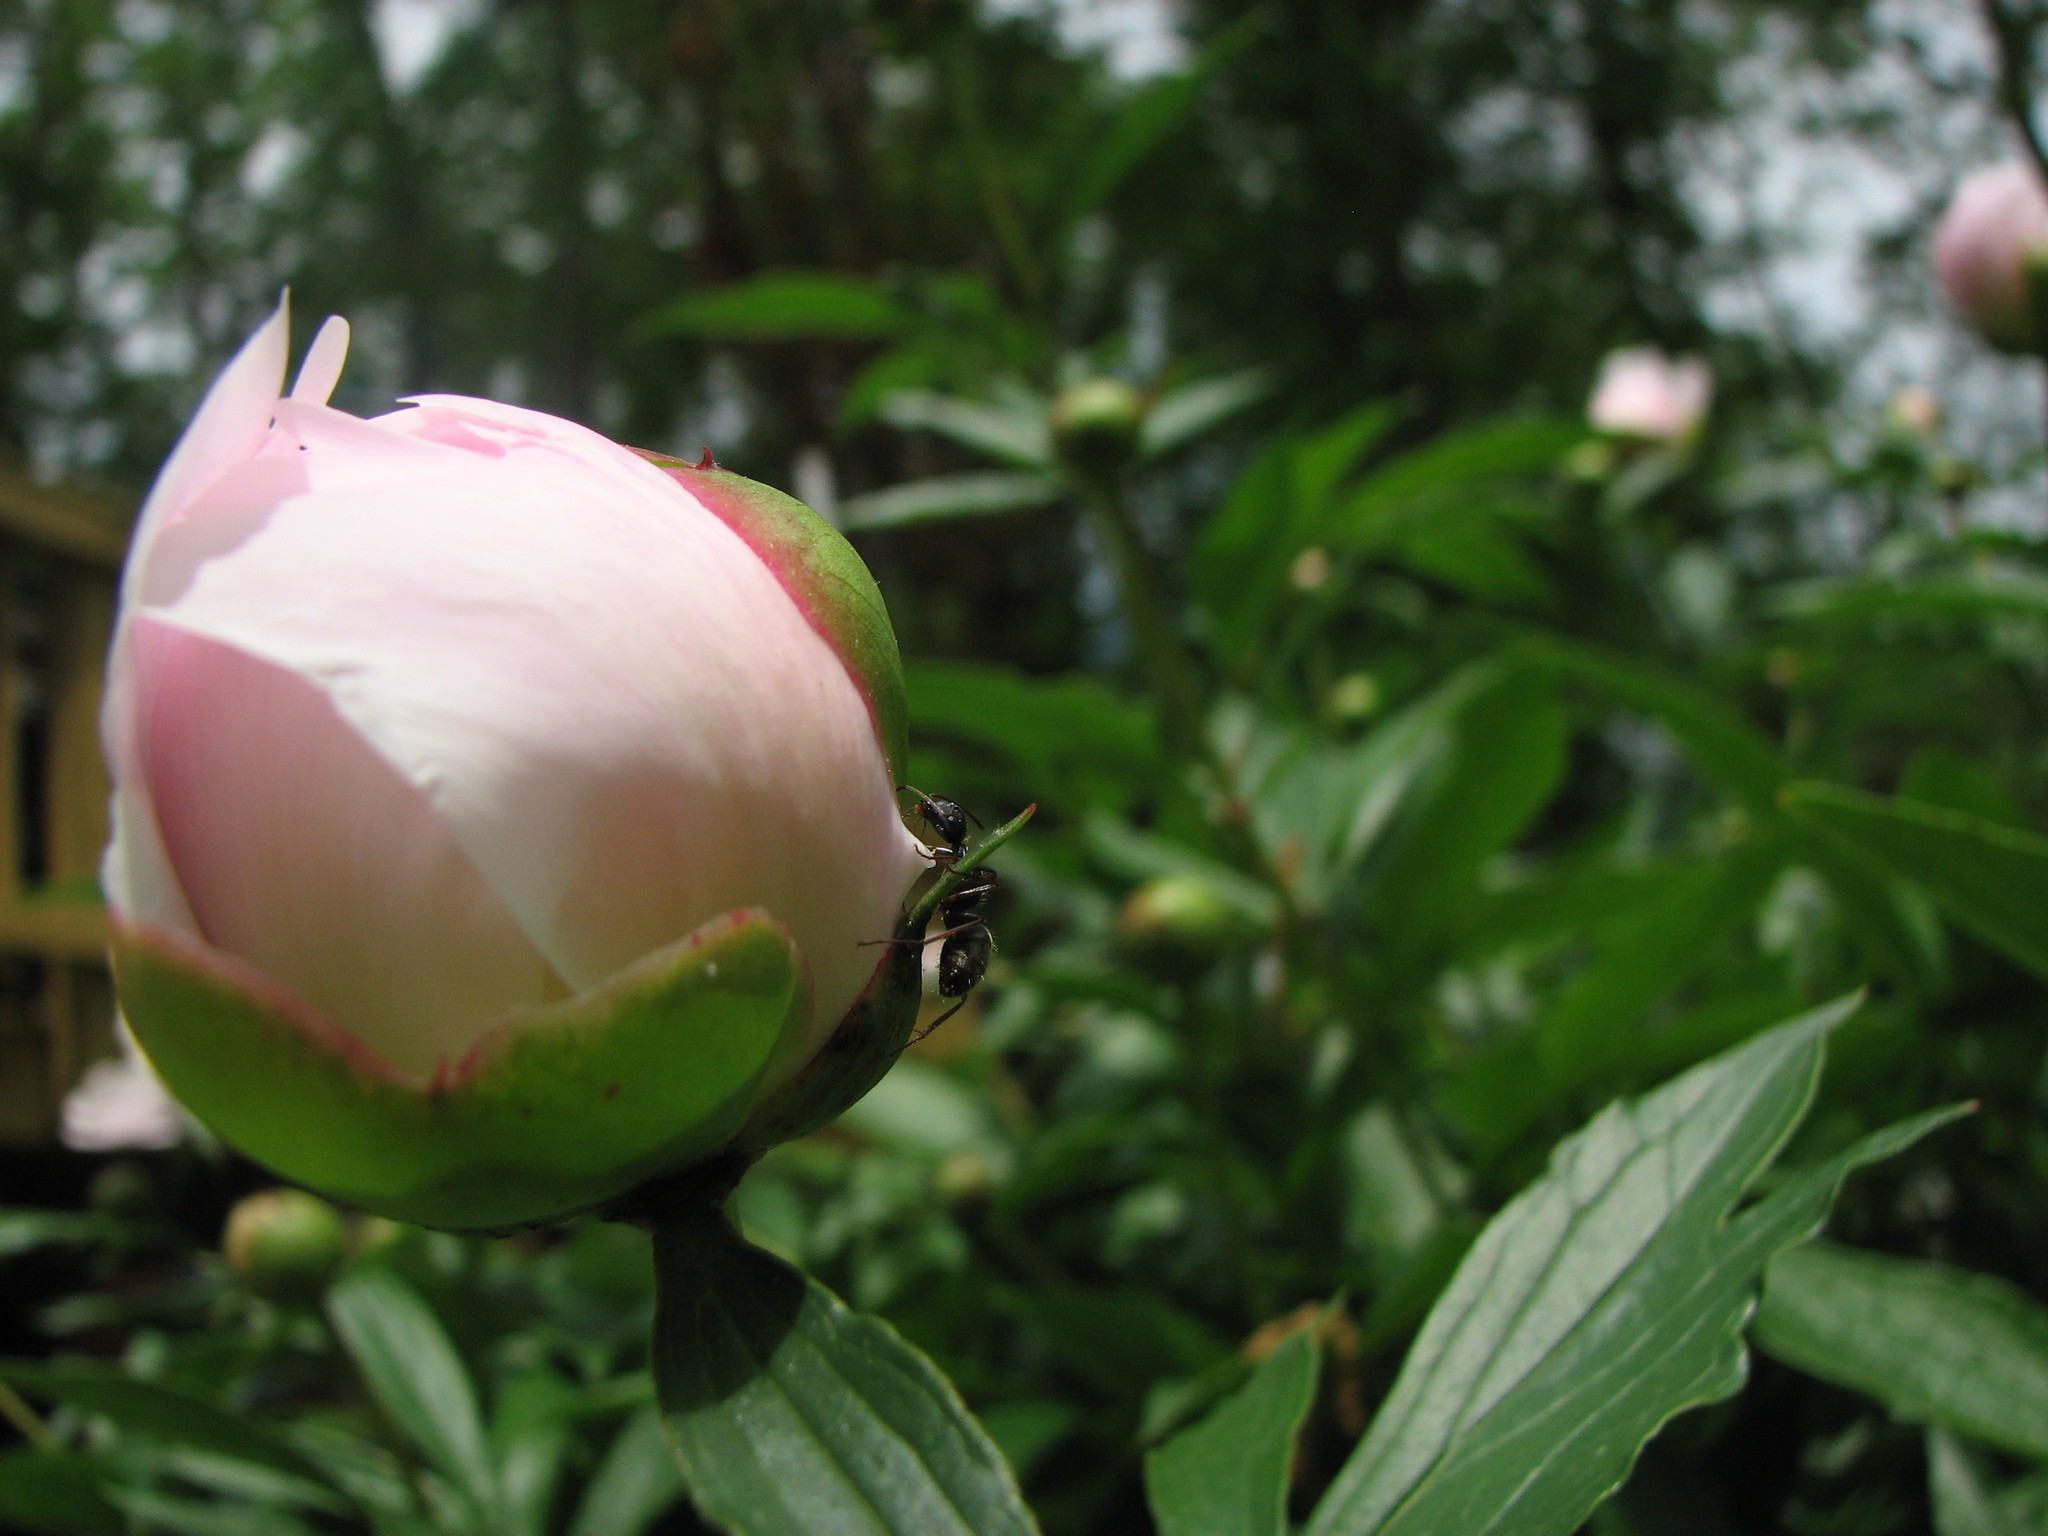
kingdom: Animalia
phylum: Arthropoda
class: Insecta
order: Hymenoptera
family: Formicidae
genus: Camponotus
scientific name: Camponotus pennsylvanicus
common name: Black carpenter ant
